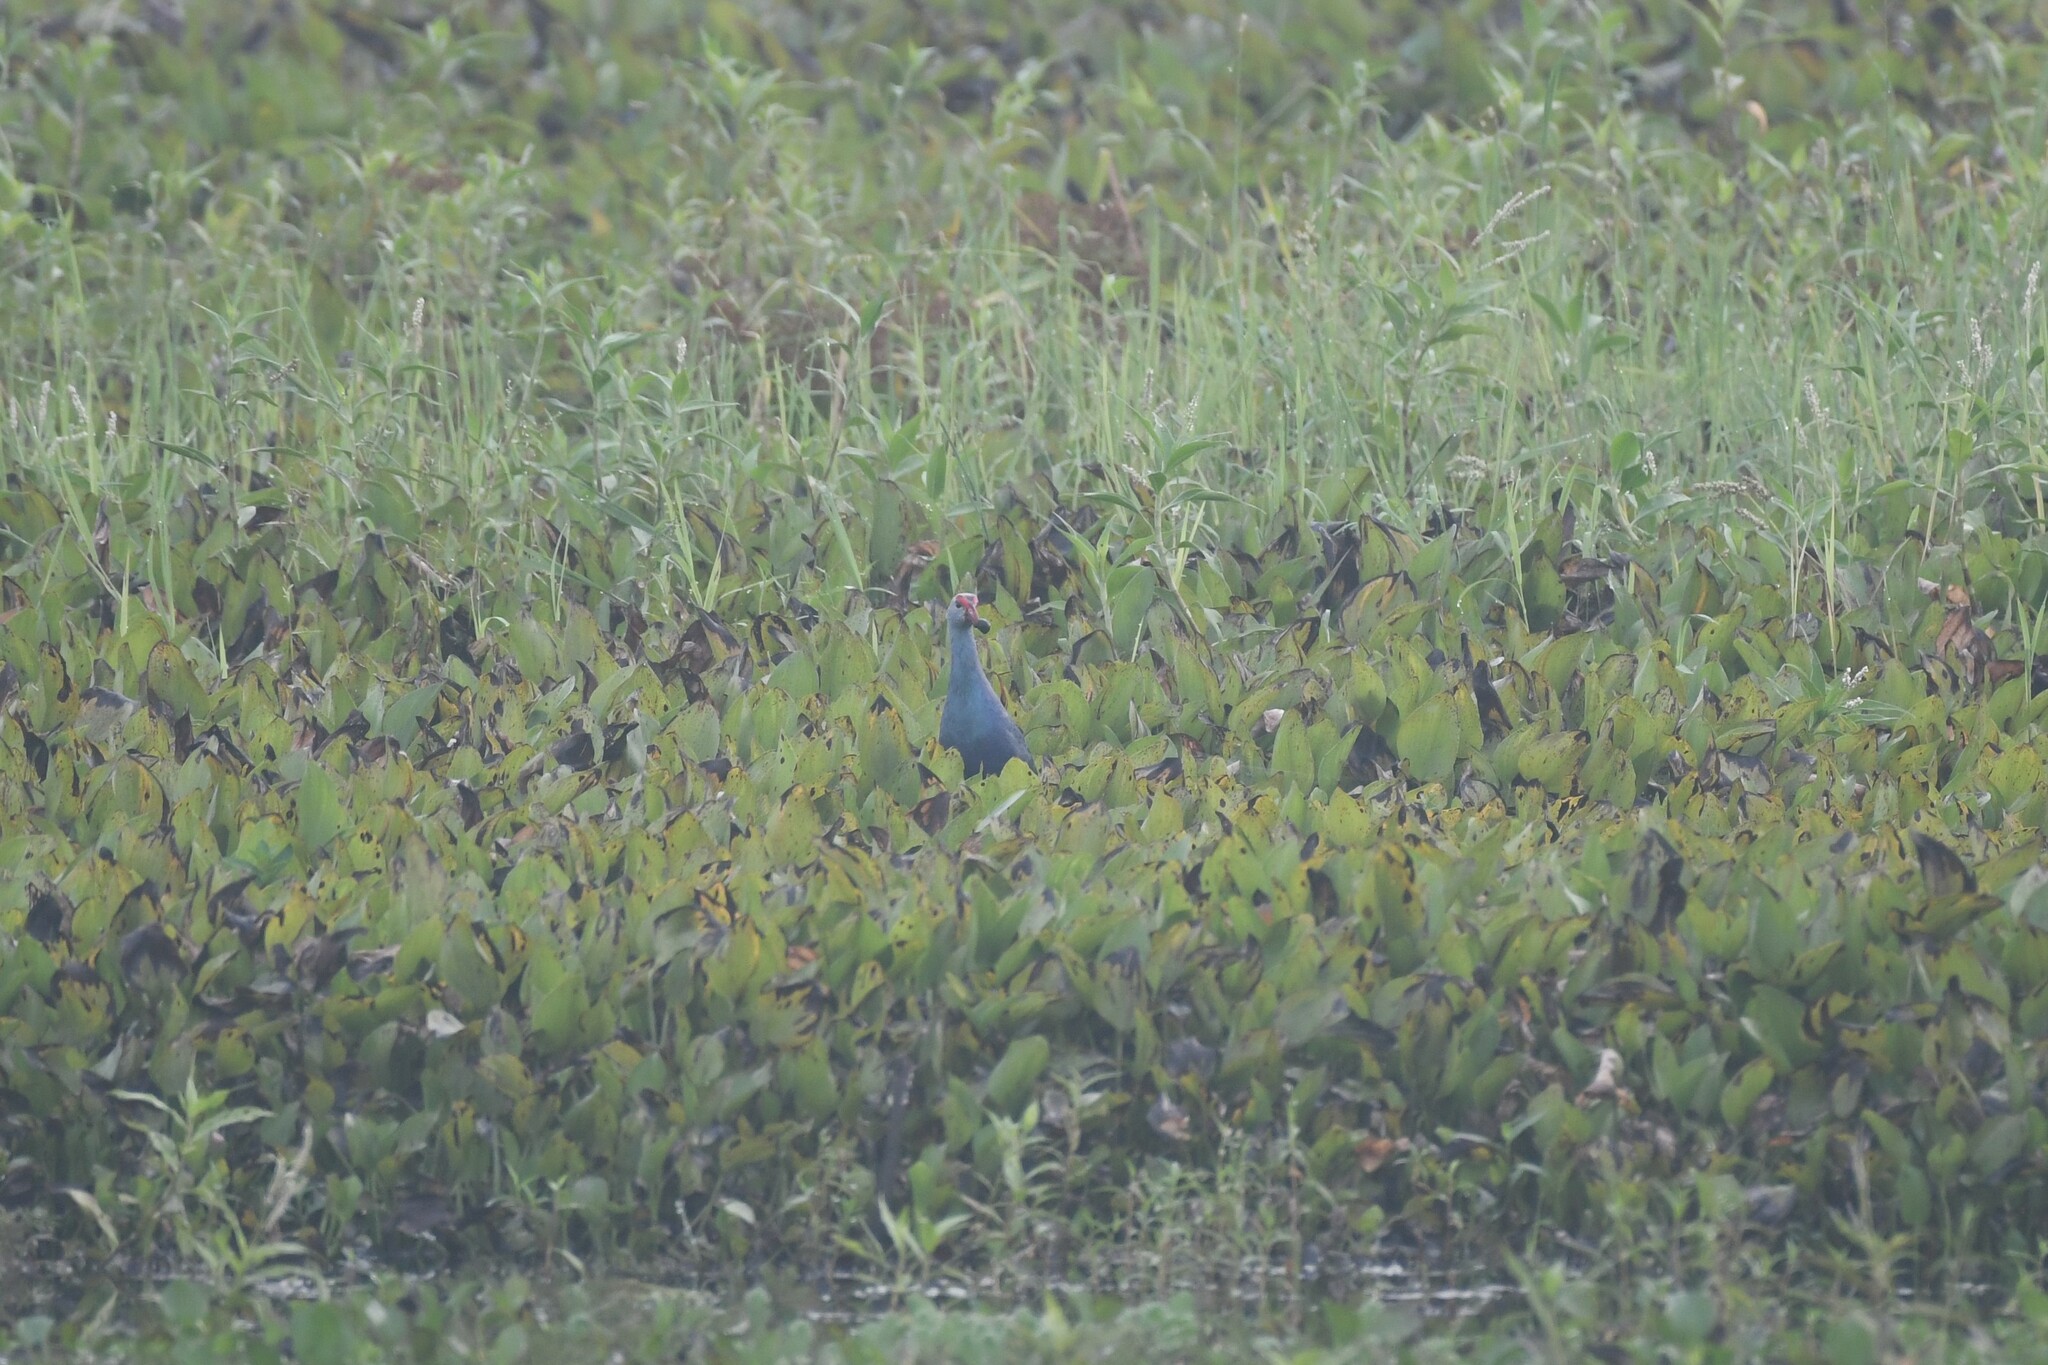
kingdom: Animalia
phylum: Chordata
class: Aves
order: Gruiformes
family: Rallidae
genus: Porphyrio
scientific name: Porphyrio porphyrio
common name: Purple swamphen
